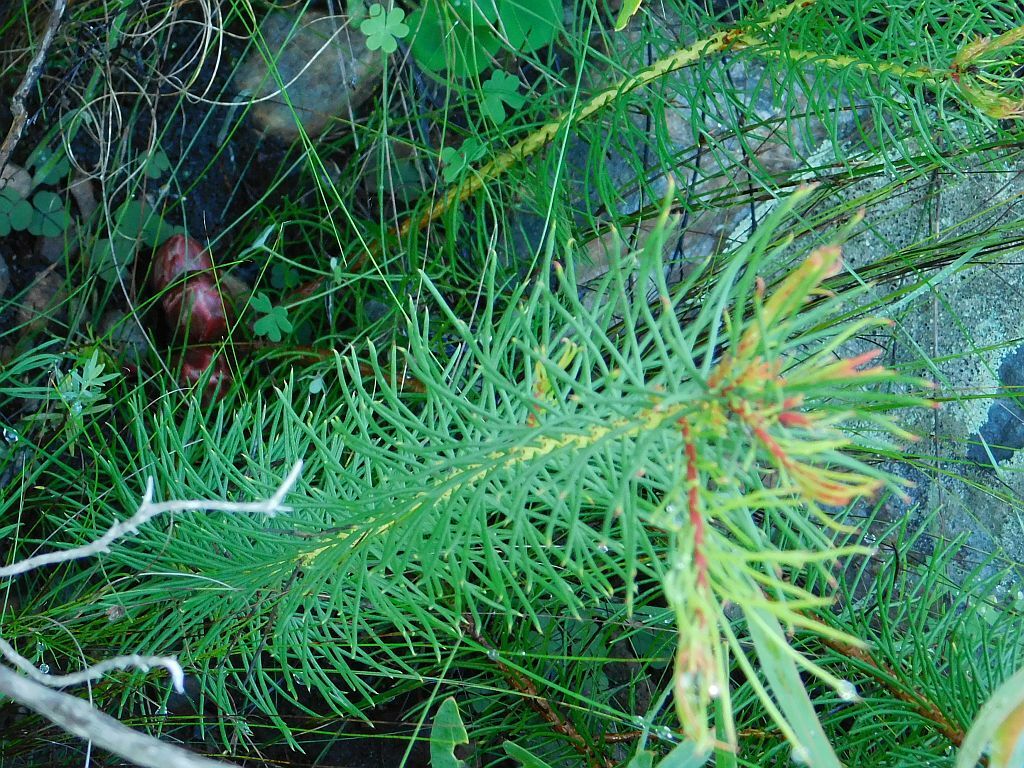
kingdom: Plantae
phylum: Tracheophyta
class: Magnoliopsida
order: Proteales
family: Proteaceae
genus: Protea
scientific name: Protea subulifolia
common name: Awl-leaf sugarbush
